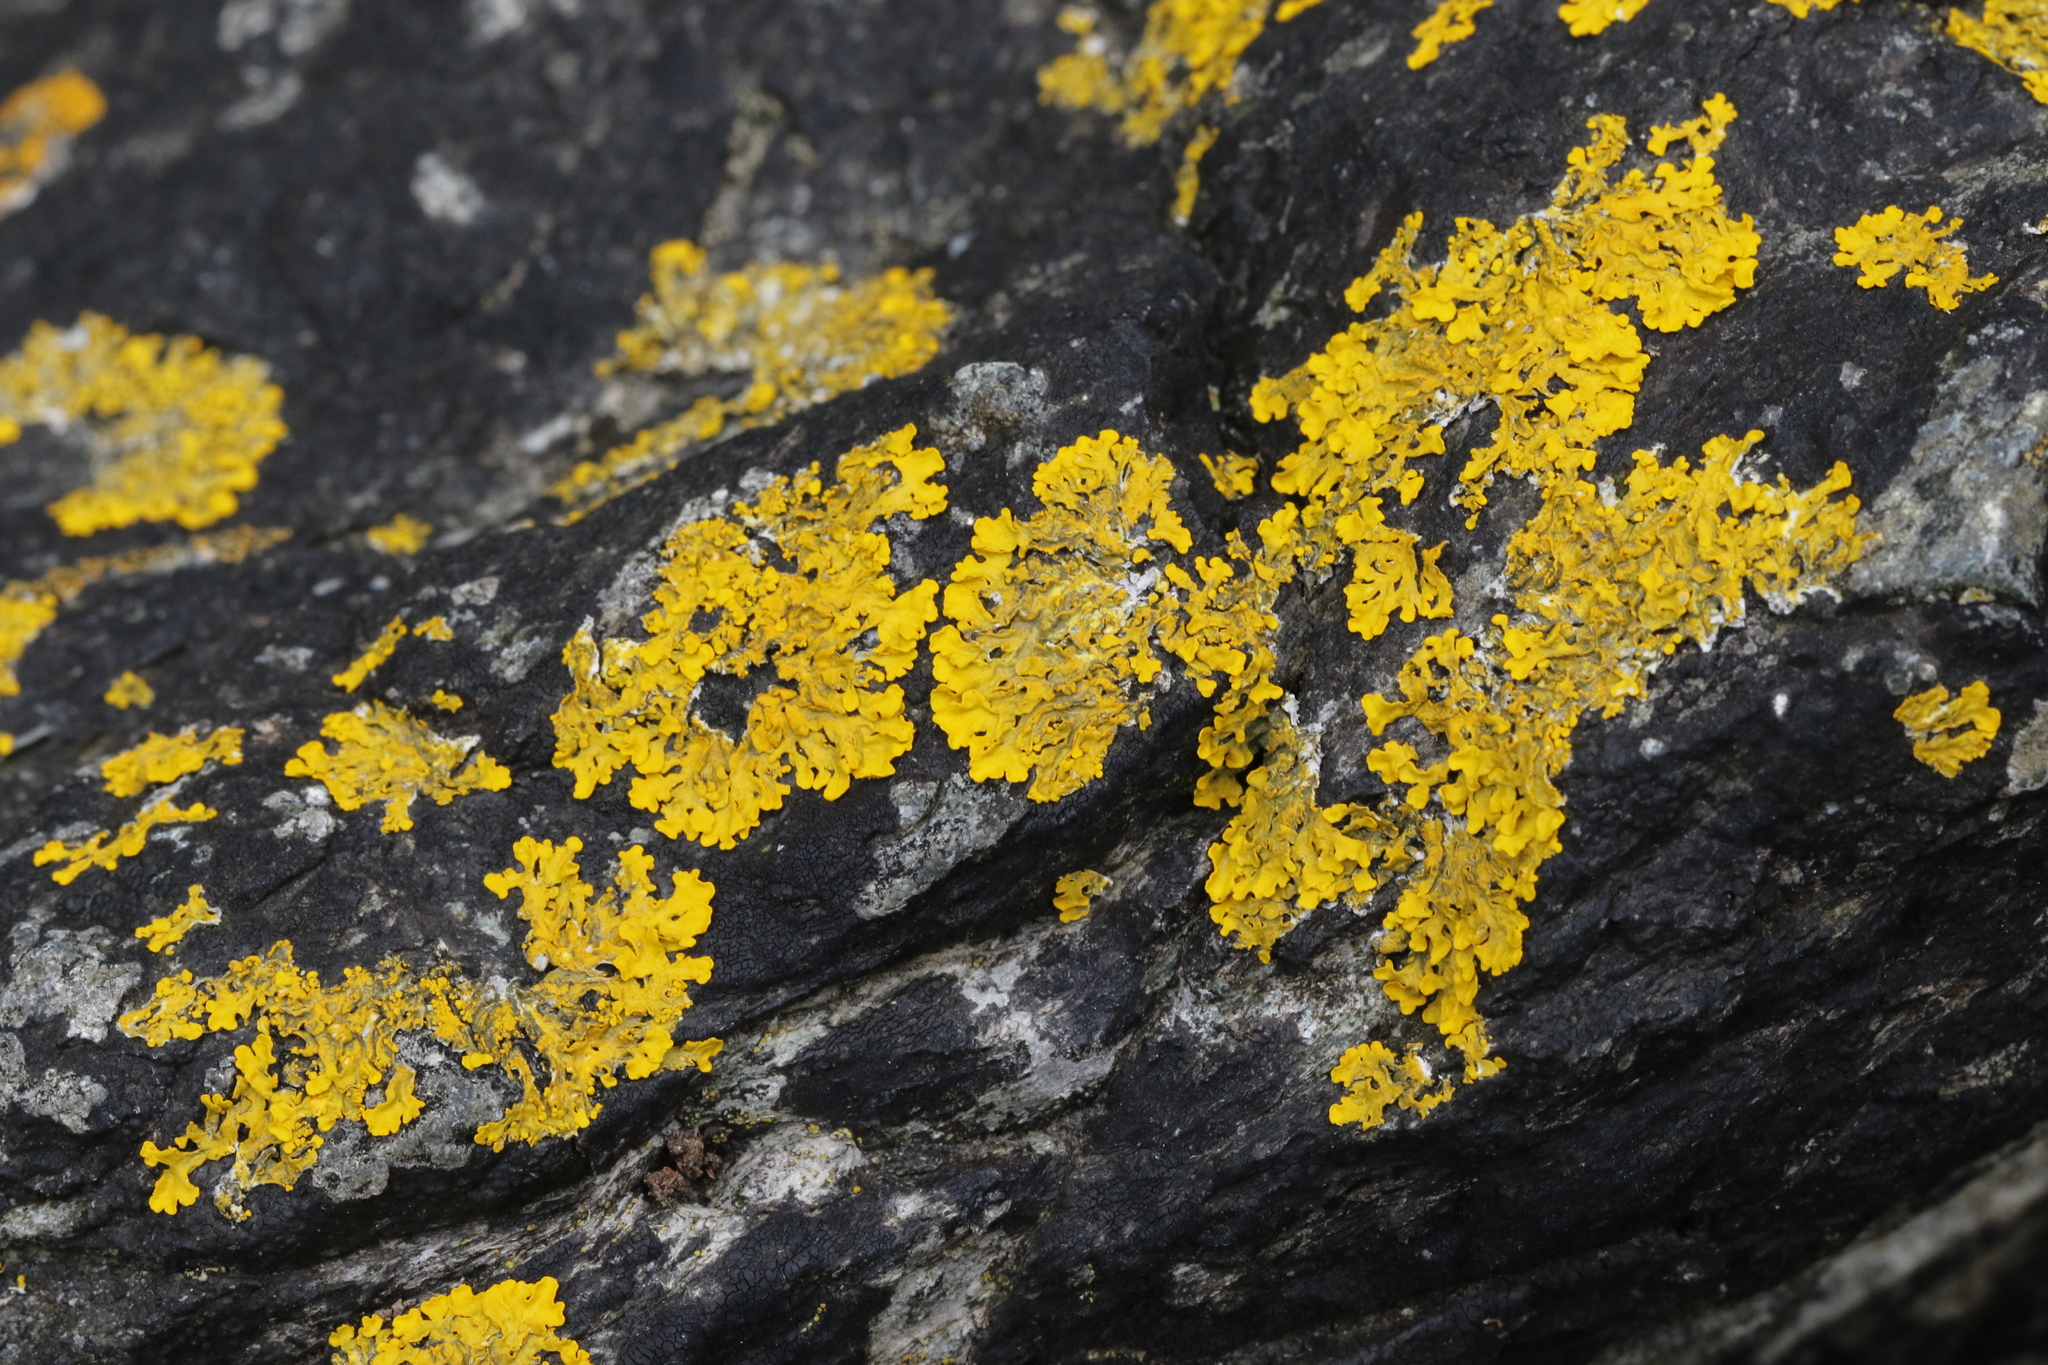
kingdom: Fungi
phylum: Ascomycota
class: Lecanoromycetes
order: Teloschistales
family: Teloschistaceae
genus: Xanthoria
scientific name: Xanthoria aureola
